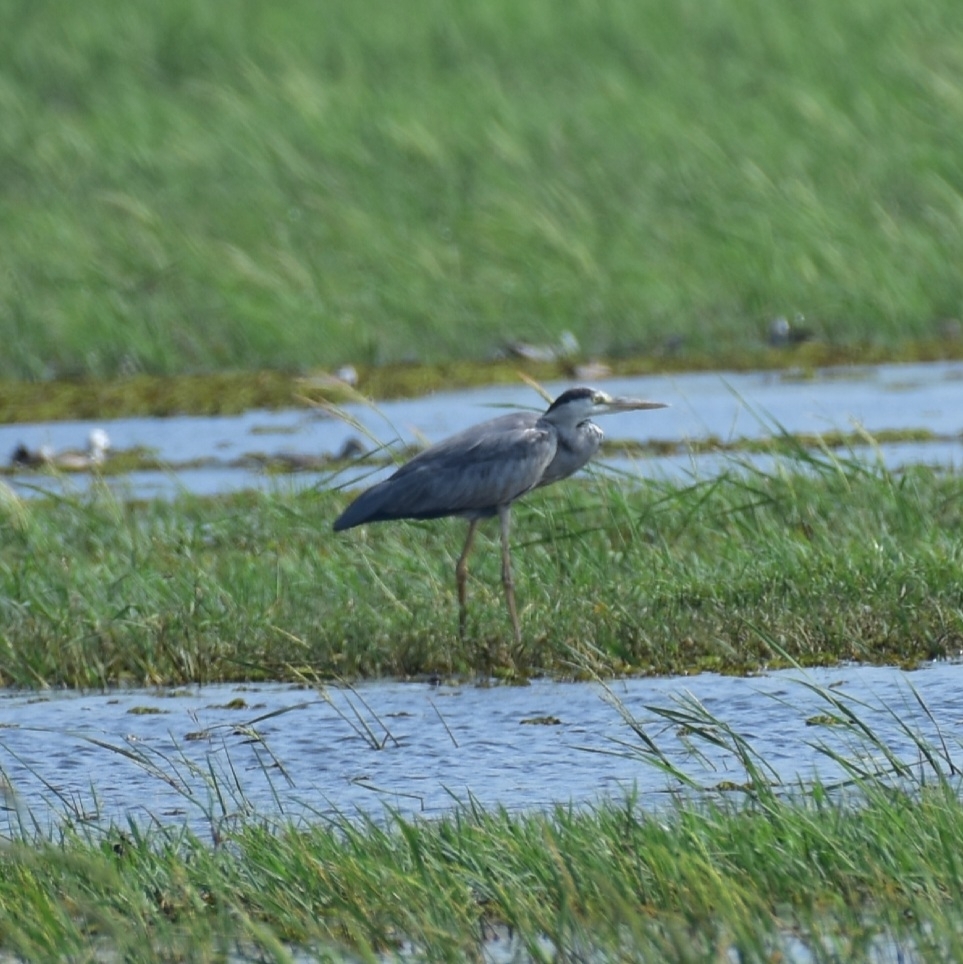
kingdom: Animalia
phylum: Chordata
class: Aves
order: Pelecaniformes
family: Ardeidae
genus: Ardea
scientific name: Ardea cinerea
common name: Grey heron
